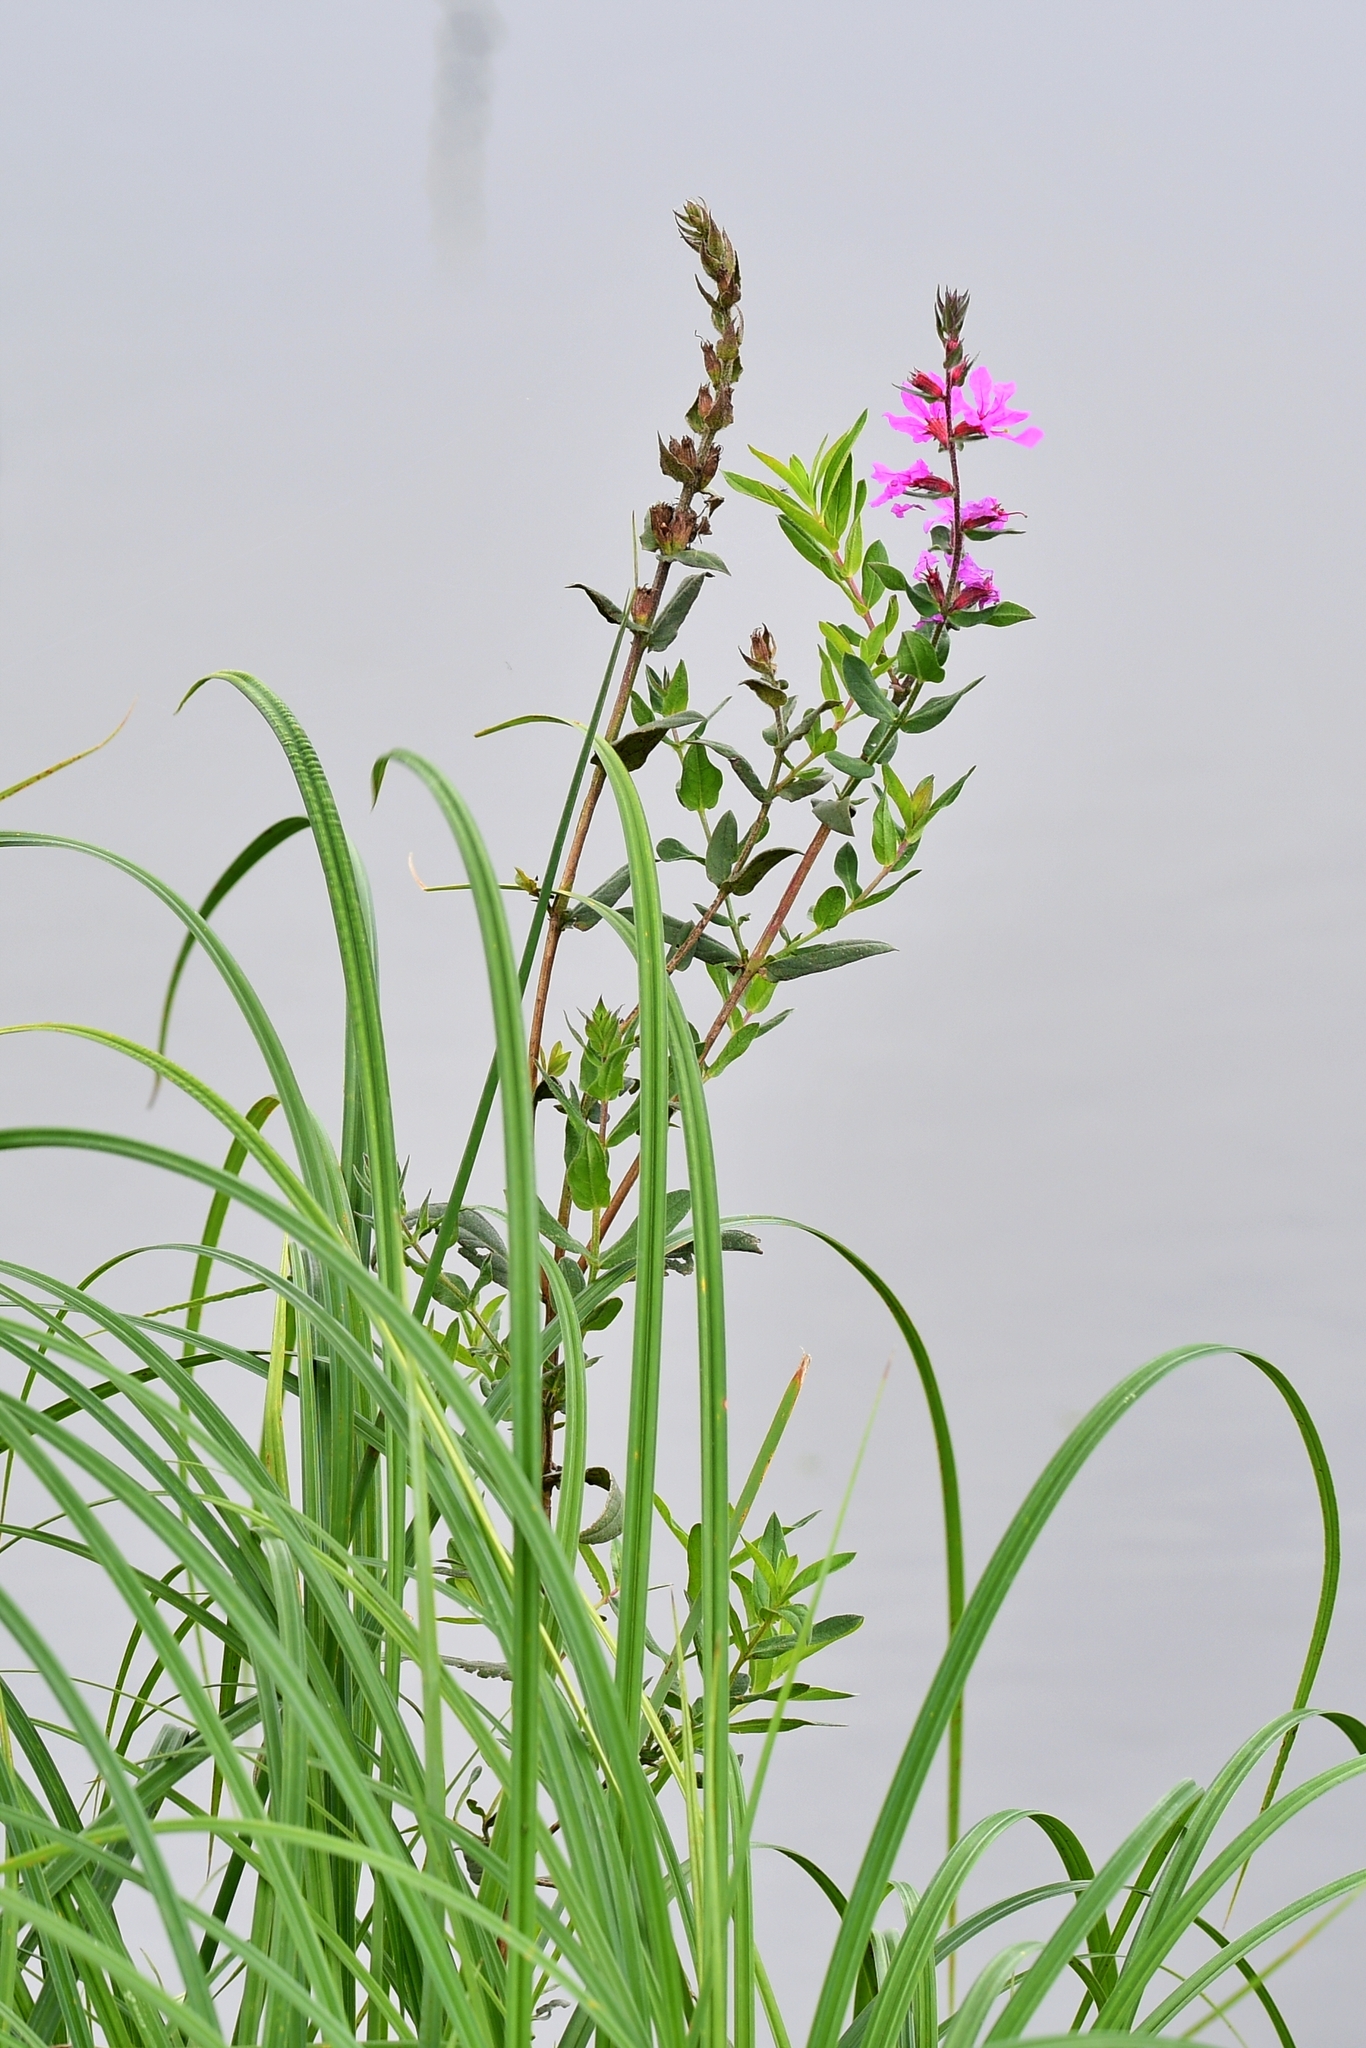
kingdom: Plantae
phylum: Tracheophyta
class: Magnoliopsida
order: Myrtales
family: Lythraceae
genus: Lythrum
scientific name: Lythrum salicaria
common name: Purple loosestrife
